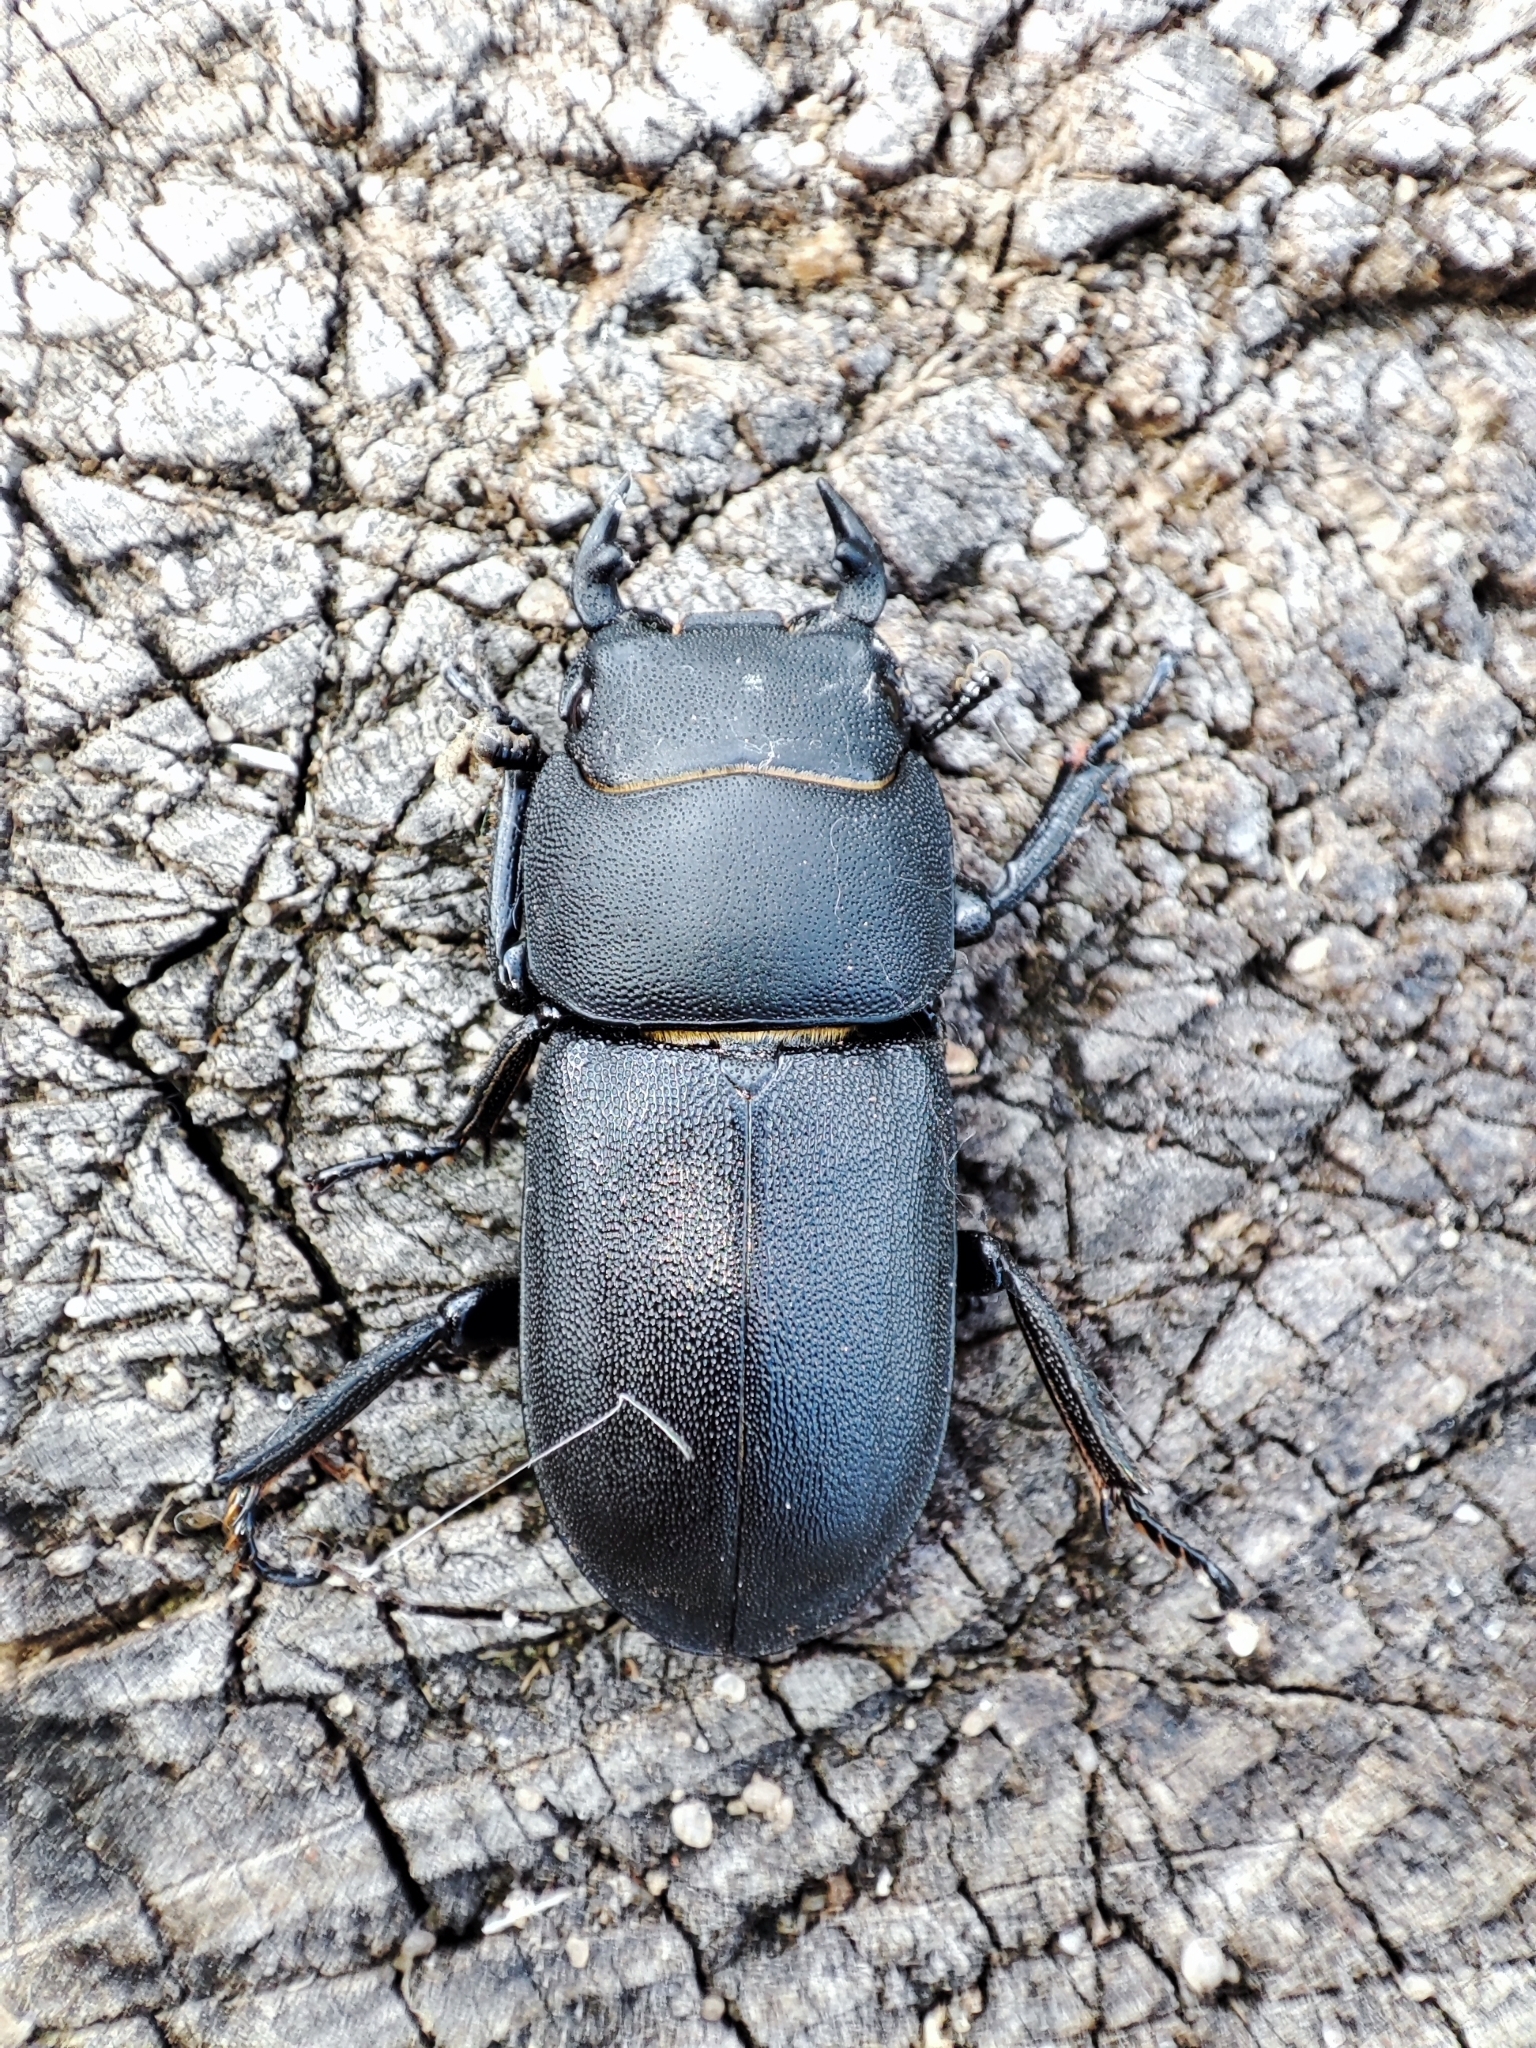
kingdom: Animalia
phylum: Arthropoda
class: Insecta
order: Coleoptera
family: Lucanidae
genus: Dorcus
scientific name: Dorcus parallelipipedus
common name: Lesser stag beetle
